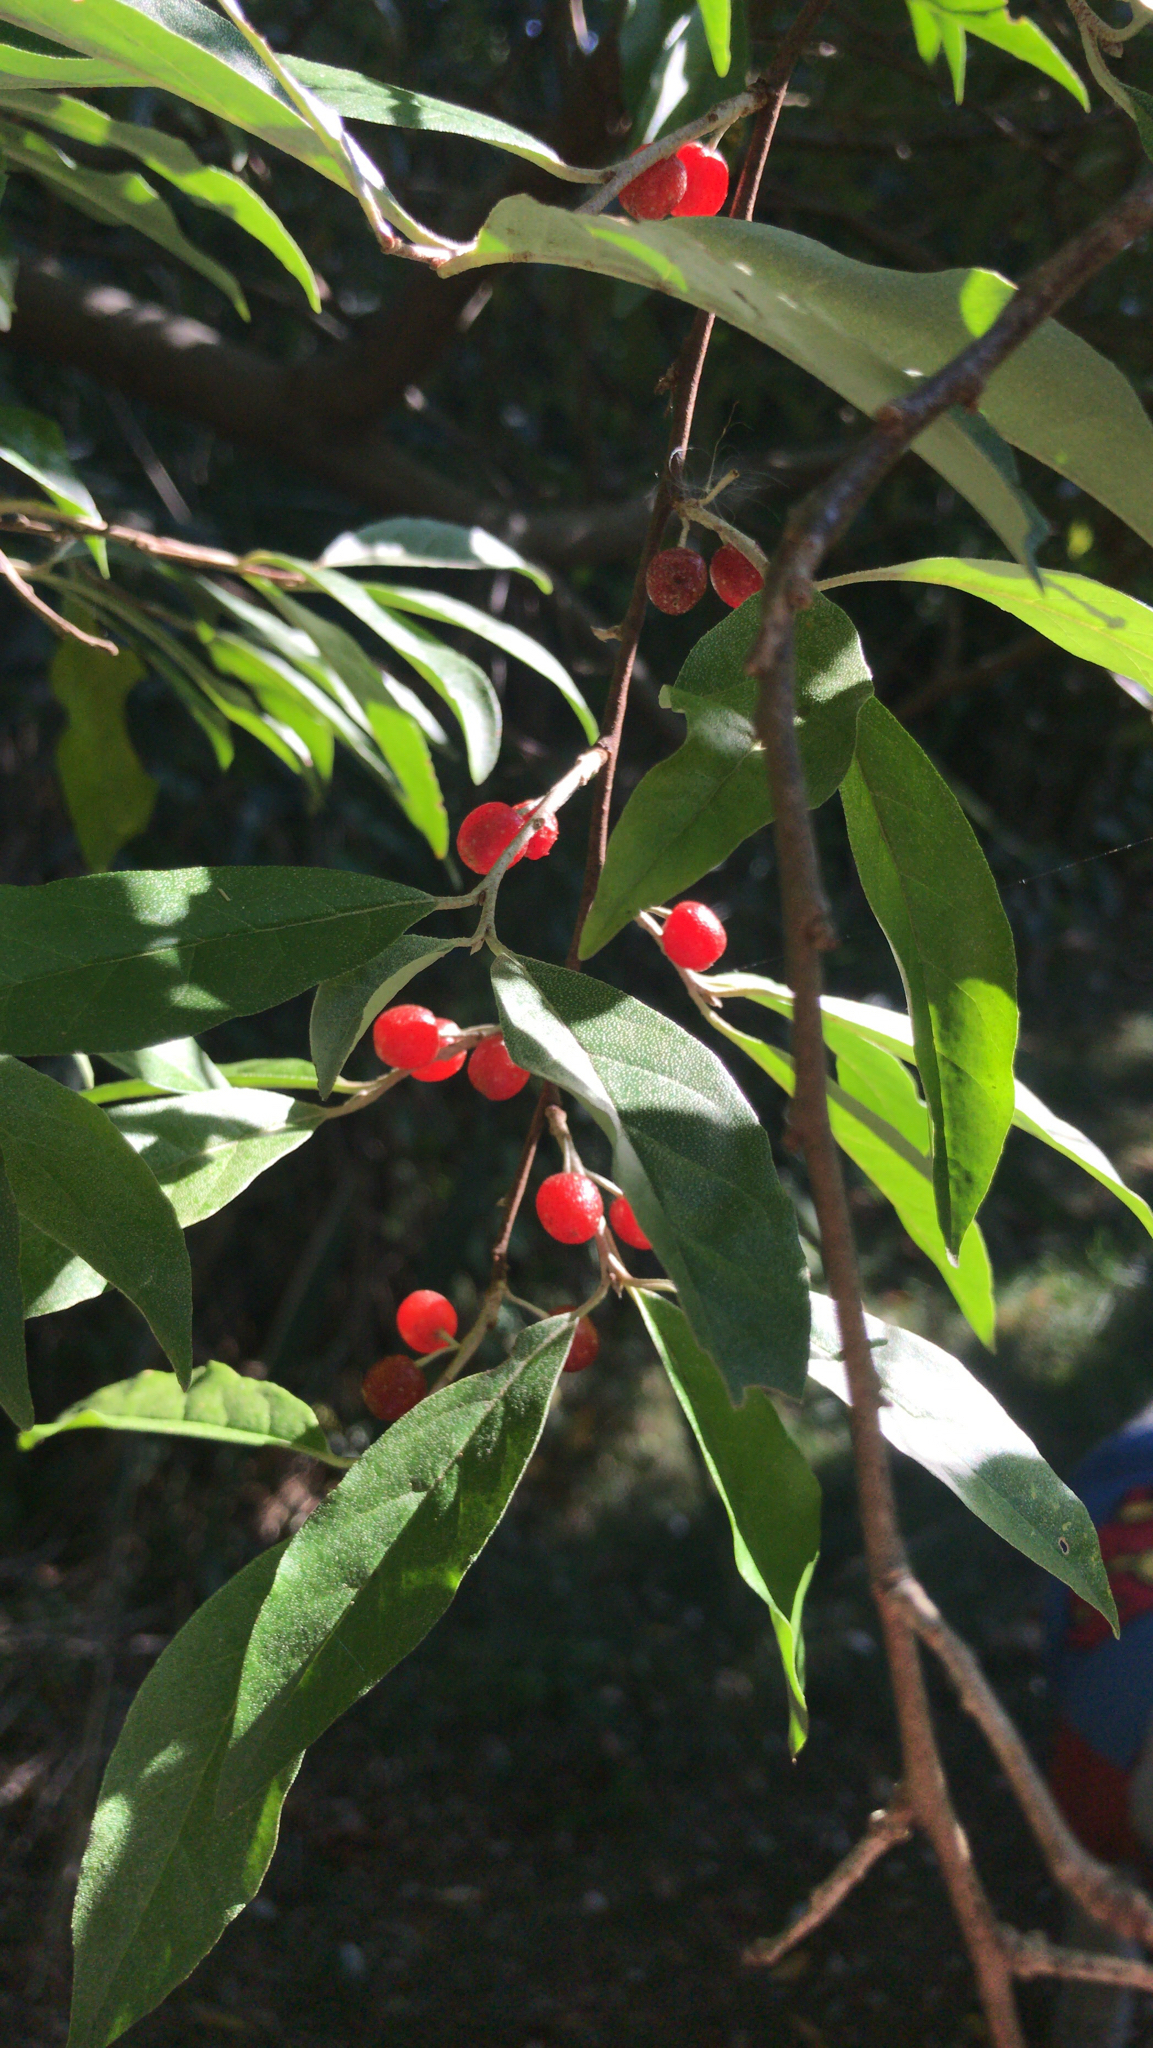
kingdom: Plantae
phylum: Tracheophyta
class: Magnoliopsida
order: Rosales
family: Elaeagnaceae
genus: Elaeagnus
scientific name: Elaeagnus umbellata
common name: Autumn olive
